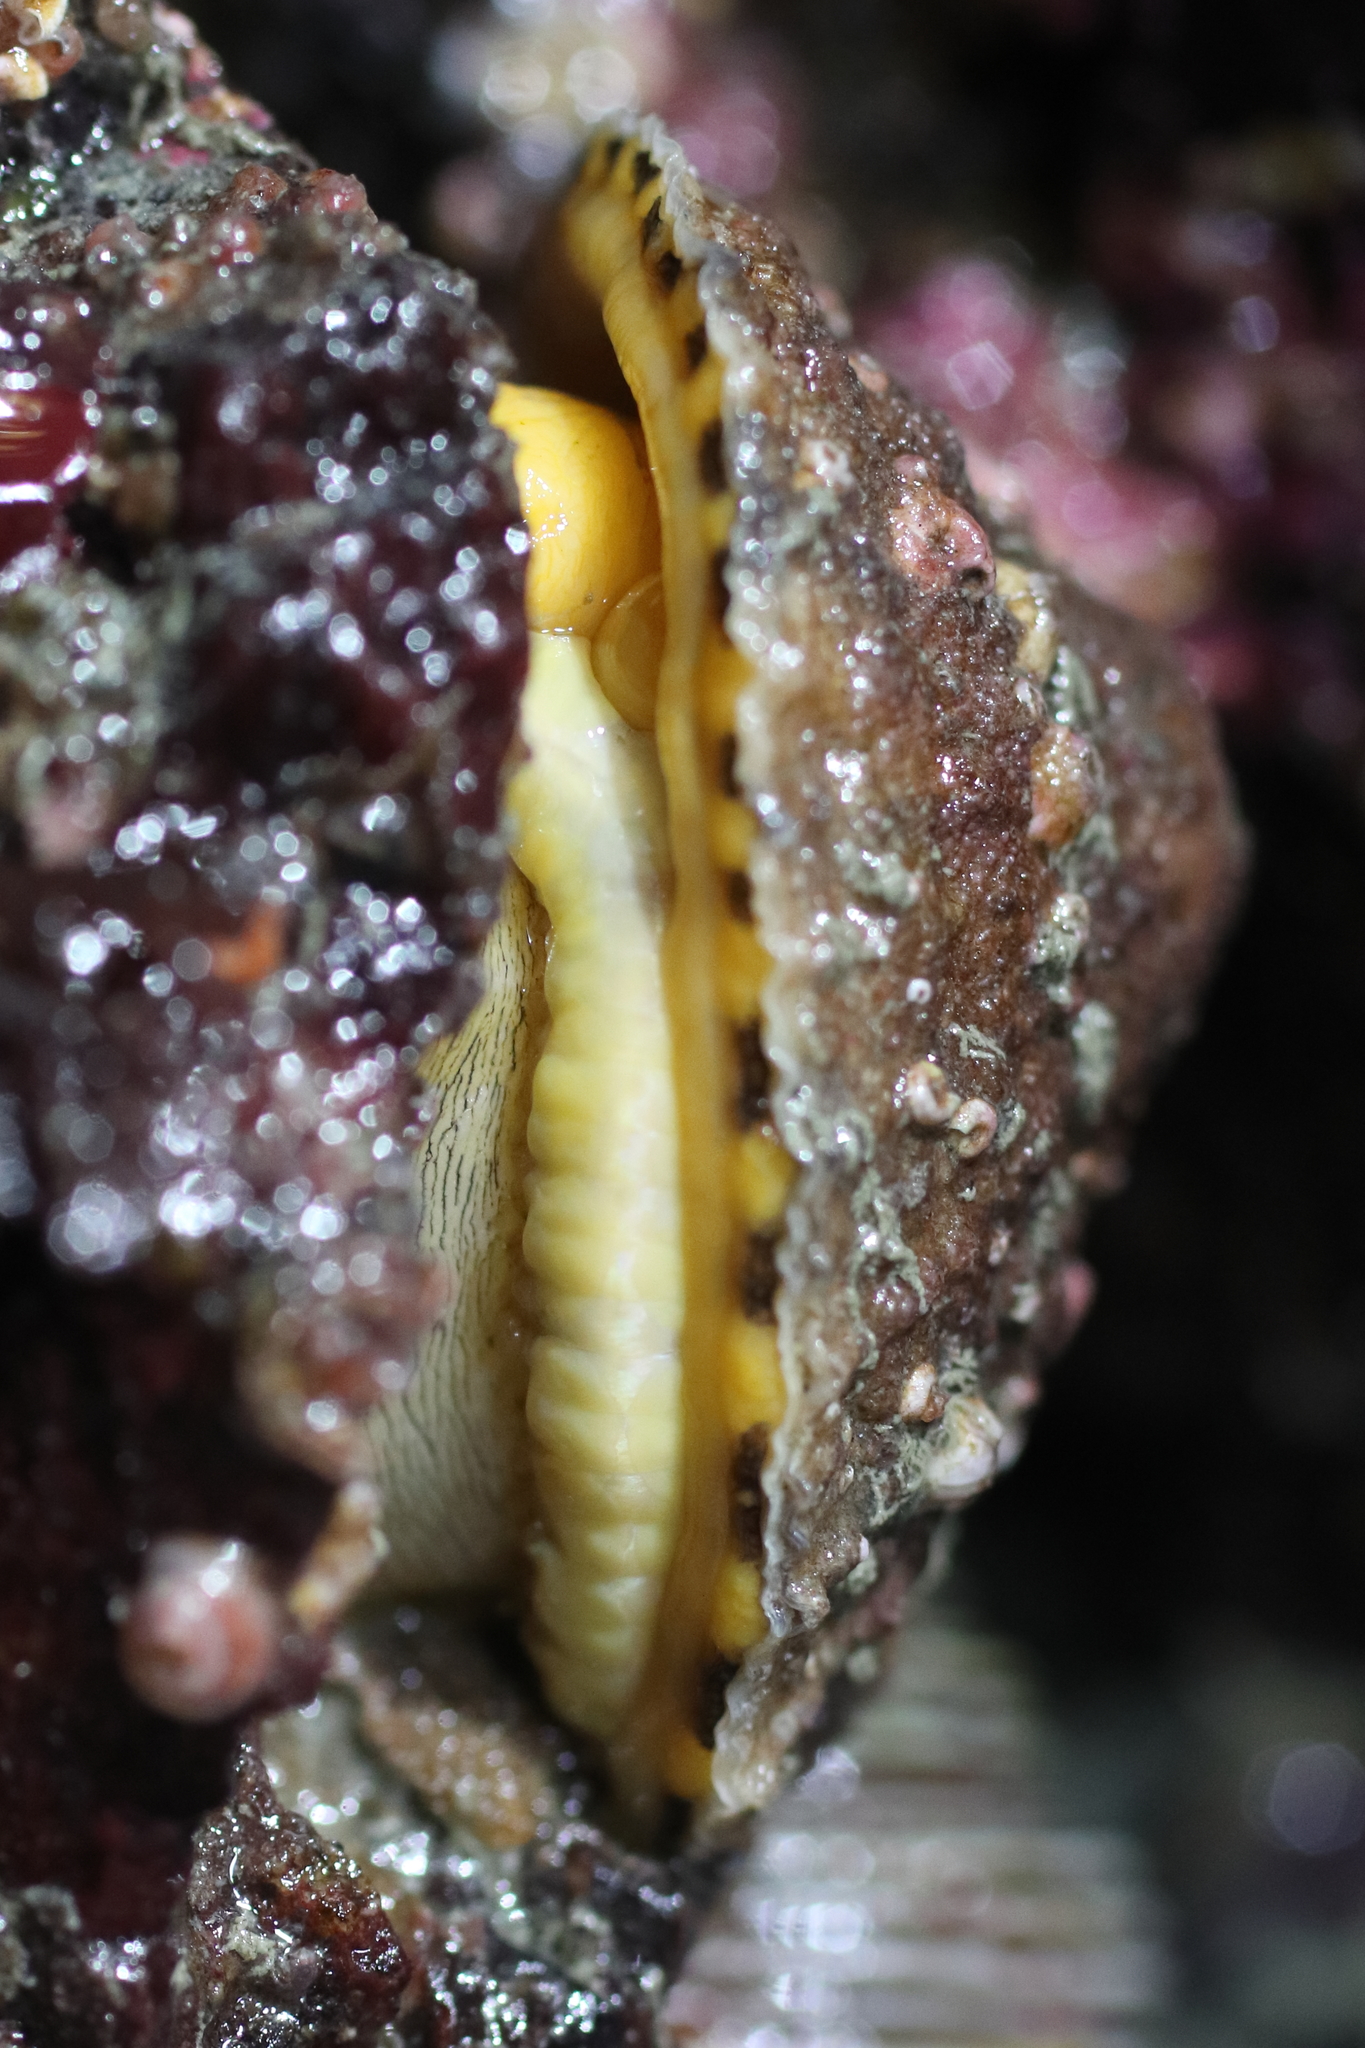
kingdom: Animalia
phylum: Mollusca
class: Gastropoda
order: Lepetellida
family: Fissurellidae
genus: Diodora
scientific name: Diodora aspera
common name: Rough keyhole limpet
